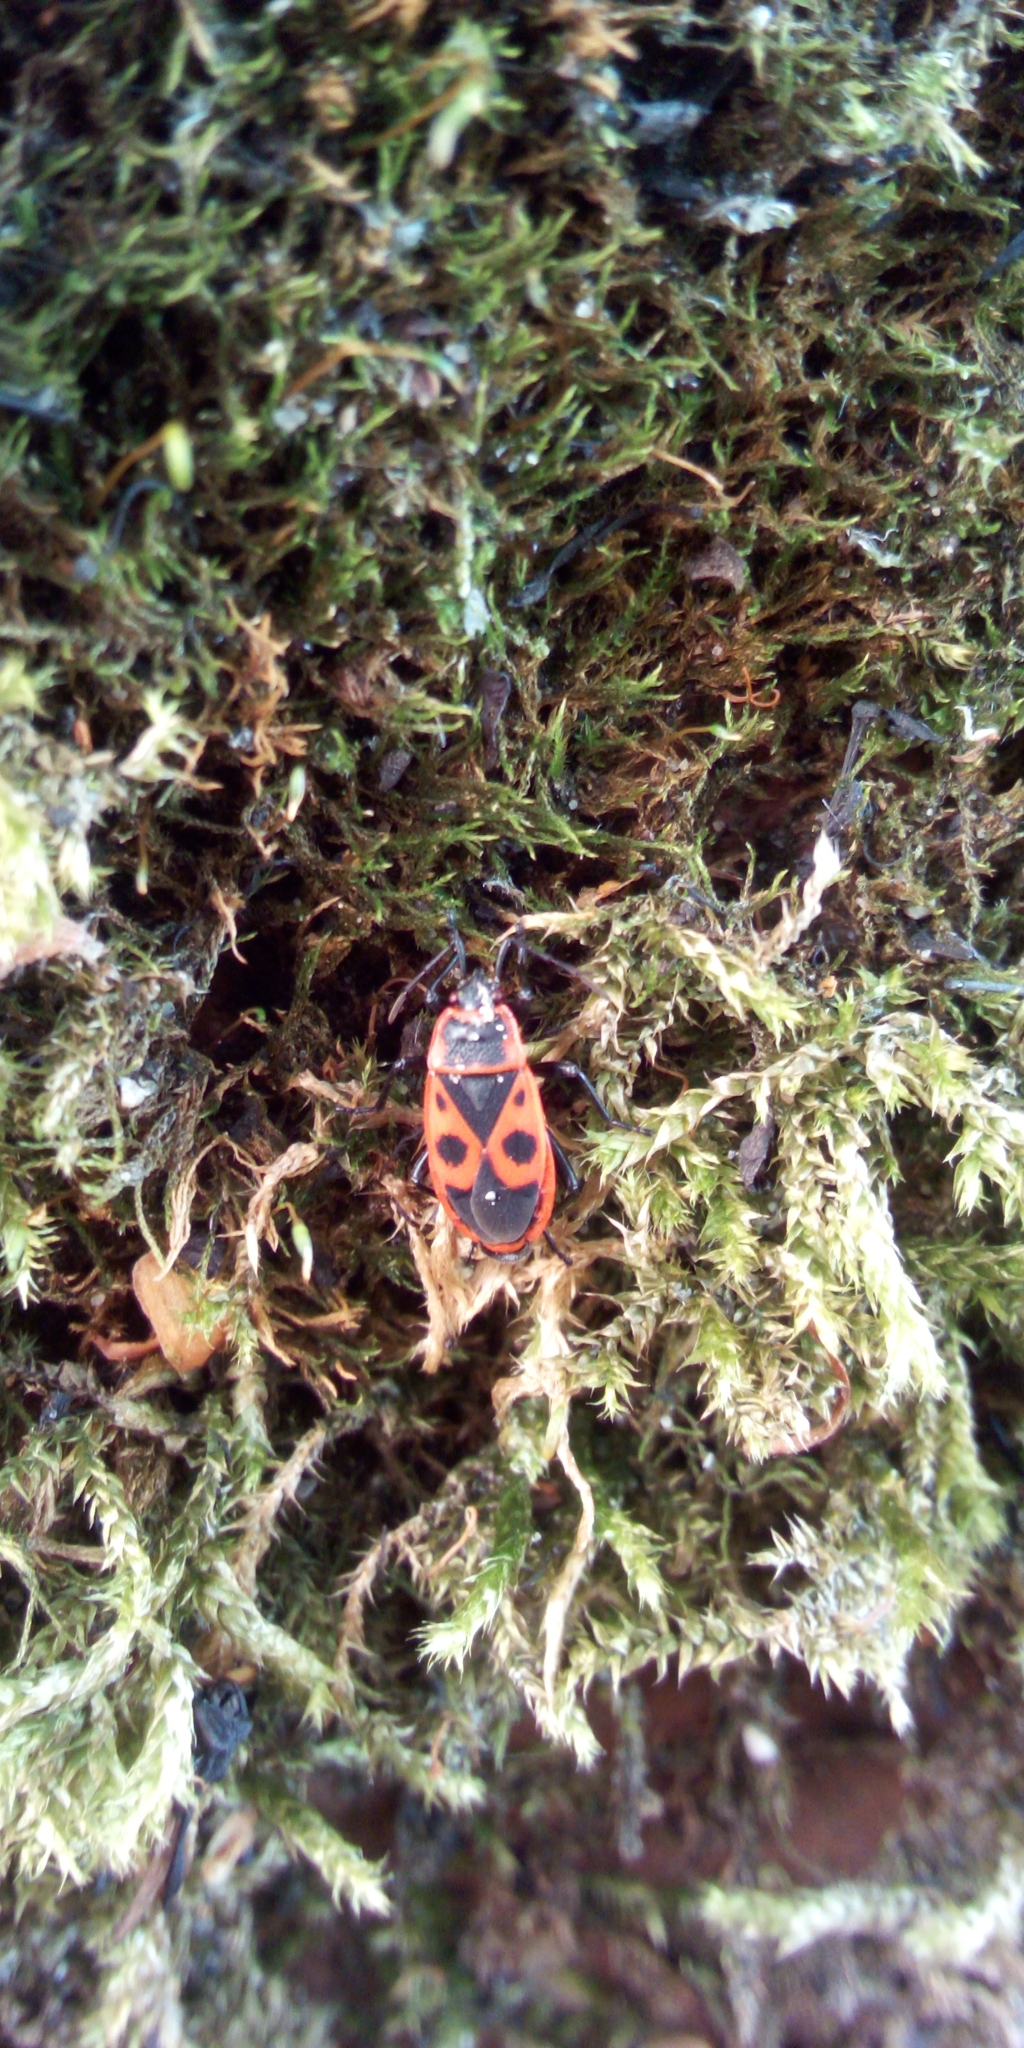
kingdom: Animalia
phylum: Arthropoda
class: Insecta
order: Hemiptera
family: Pyrrhocoridae
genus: Pyrrhocoris
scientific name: Pyrrhocoris apterus
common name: Firebug
